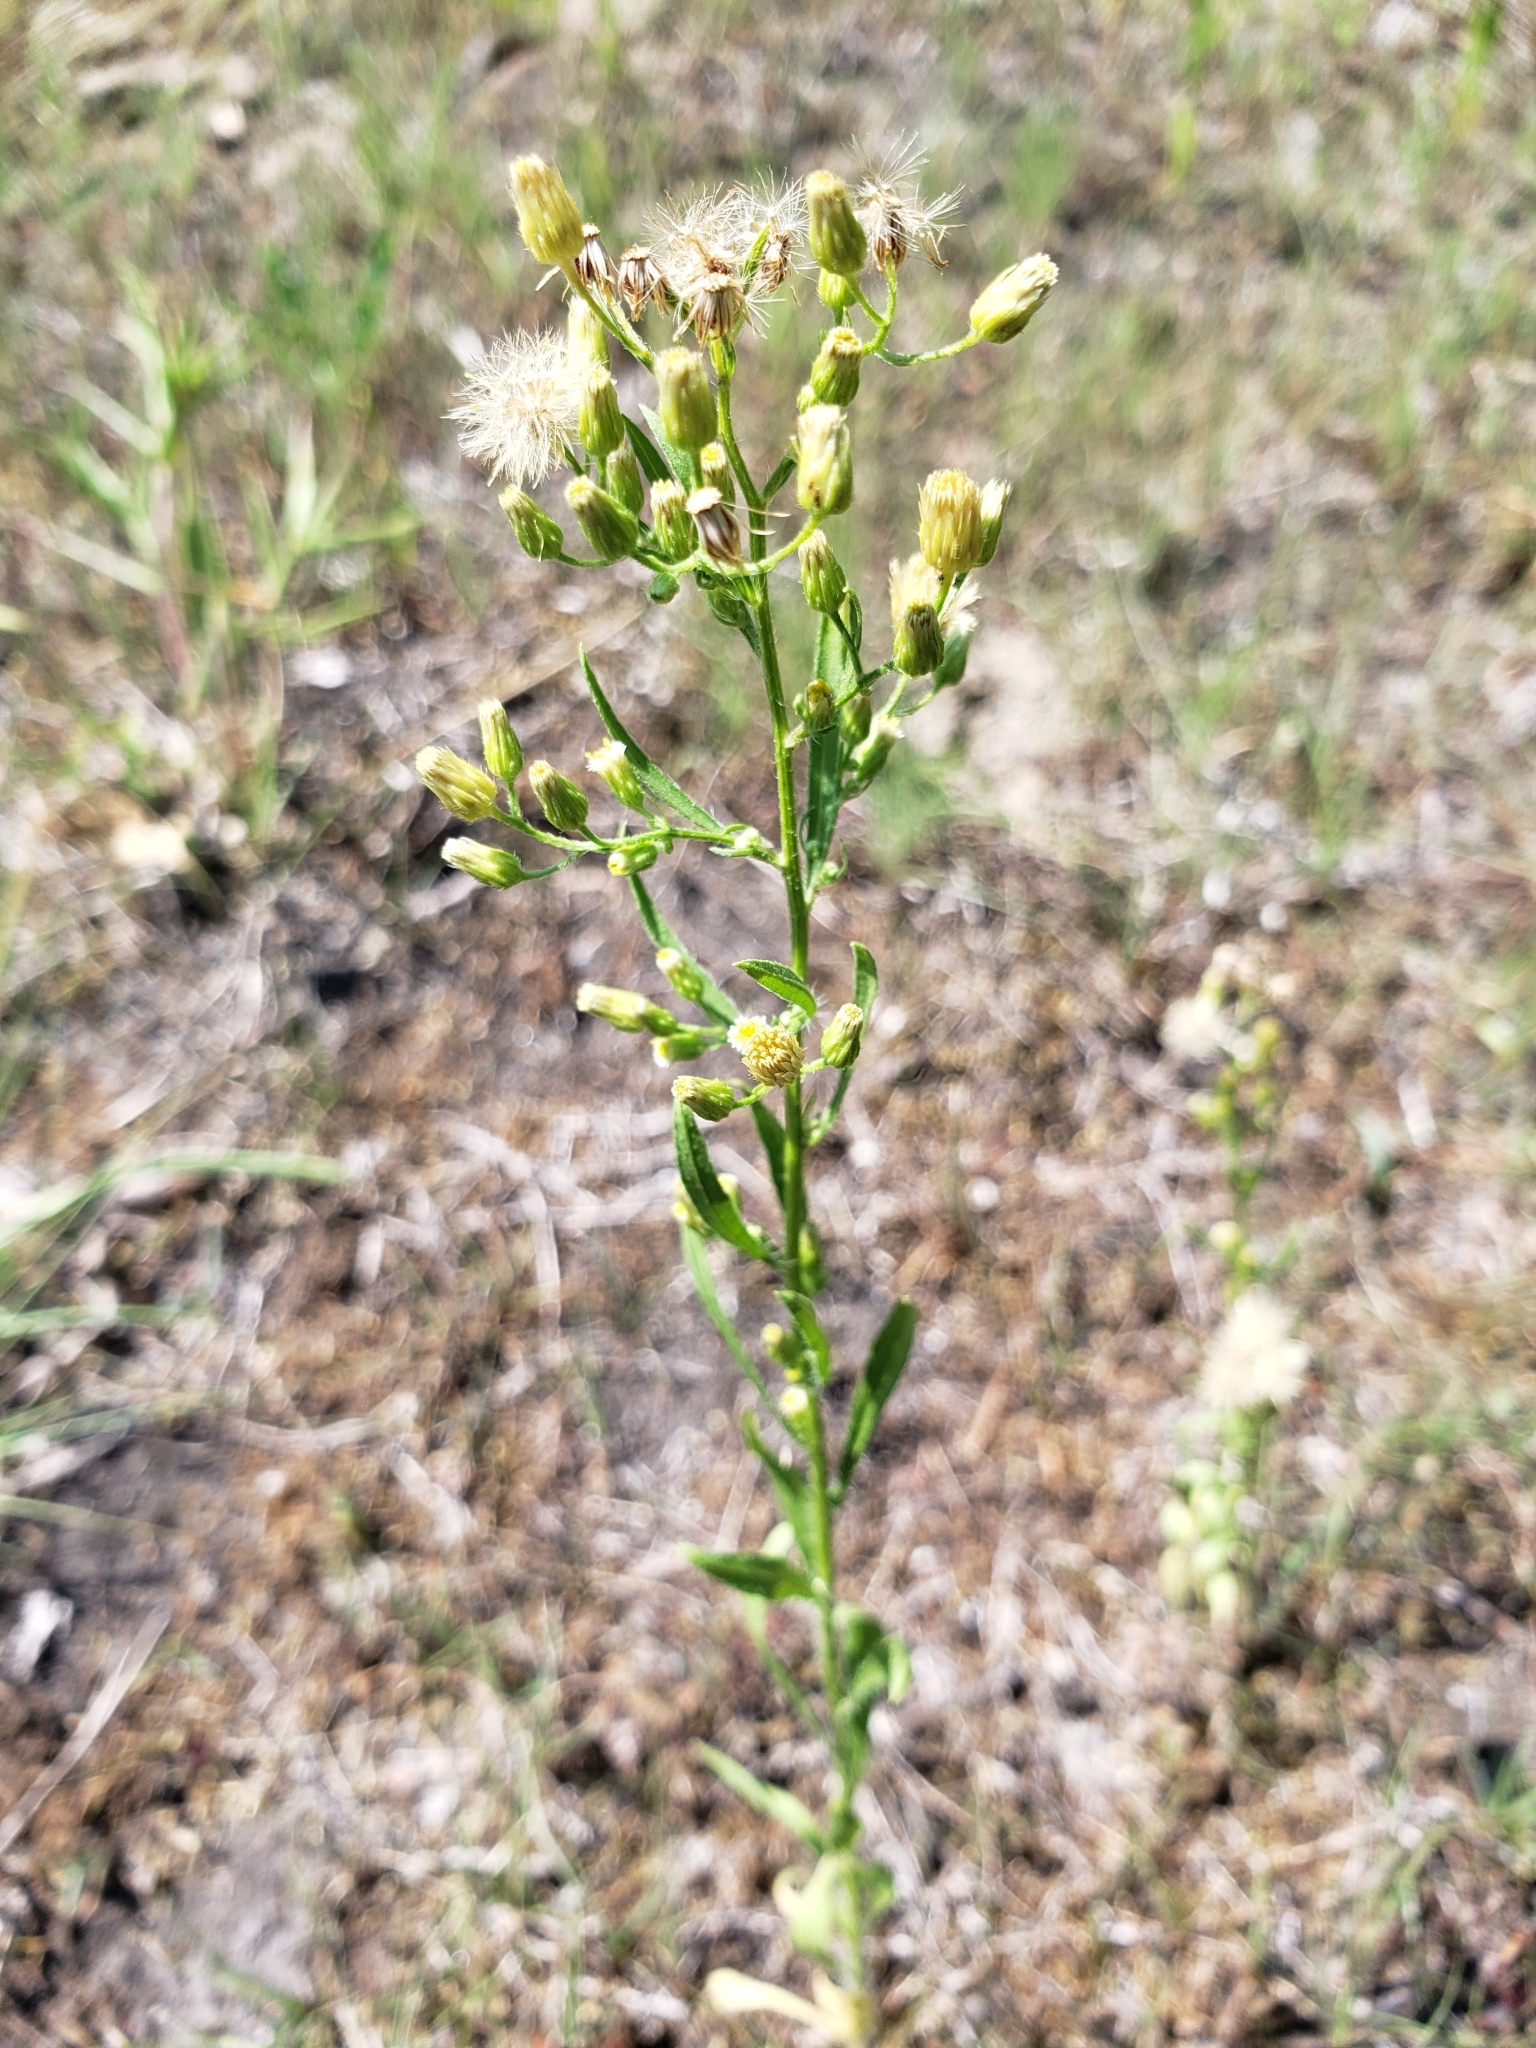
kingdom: Plantae
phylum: Tracheophyta
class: Magnoliopsida
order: Asterales
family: Asteraceae
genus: Erigeron
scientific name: Erigeron canadensis
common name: Canadian fleabane
